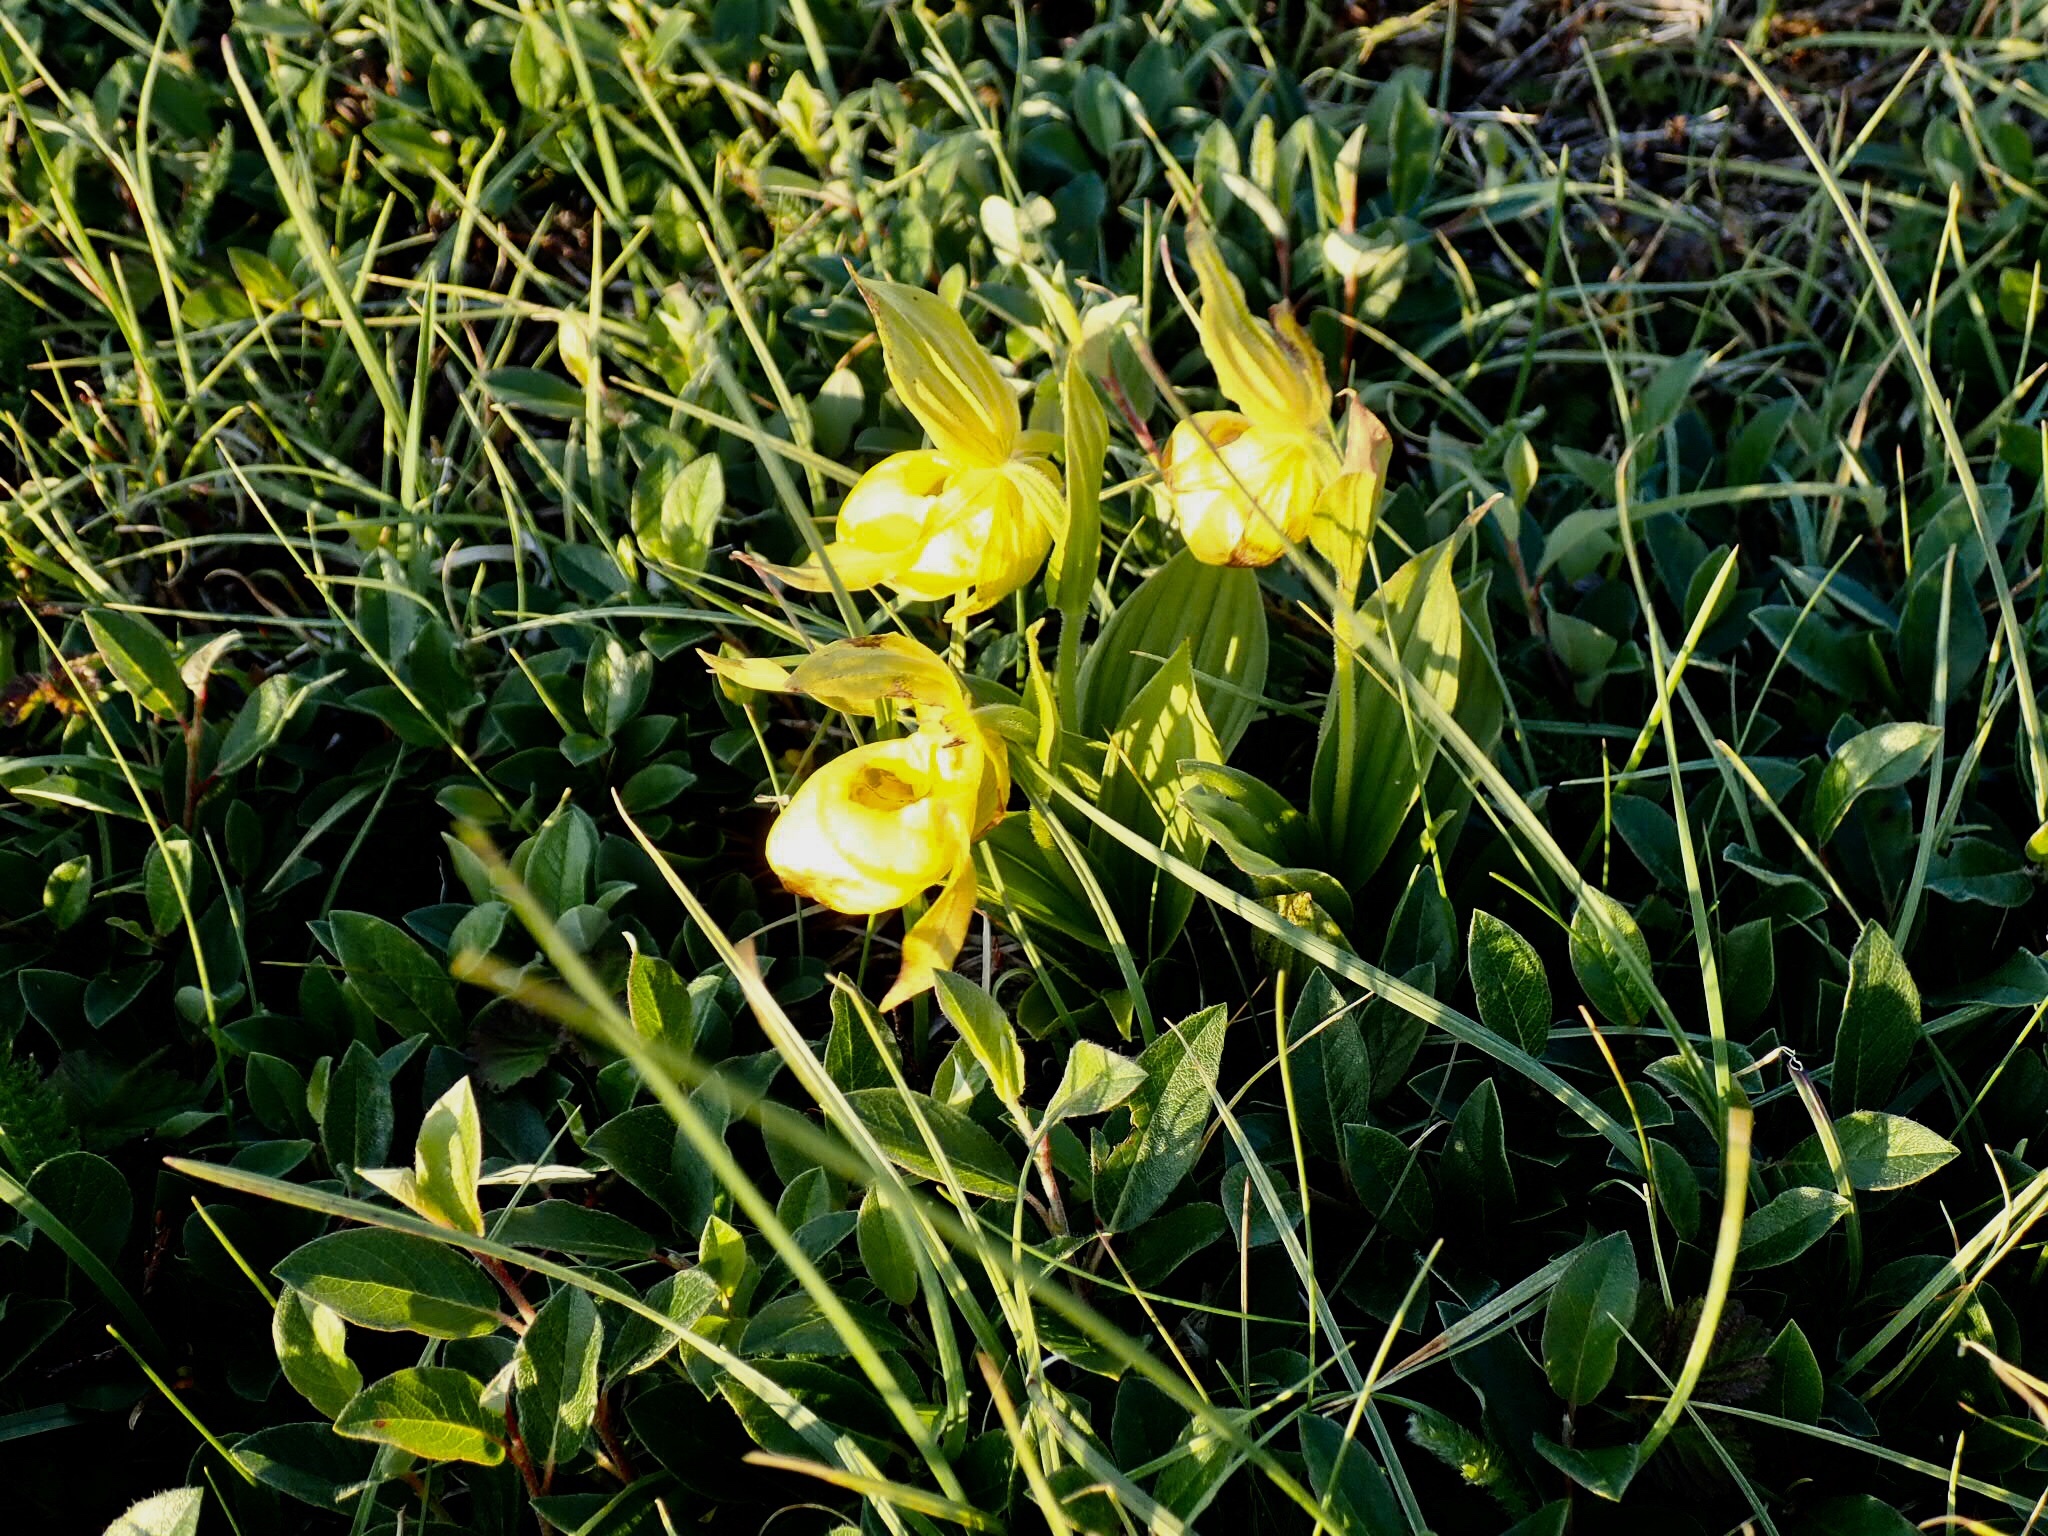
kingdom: Plantae
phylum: Tracheophyta
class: Liliopsida
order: Asparagales
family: Orchidaceae
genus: Cypripedium
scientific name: Cypripedium parviflorum
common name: American yellow lady's-slipper
